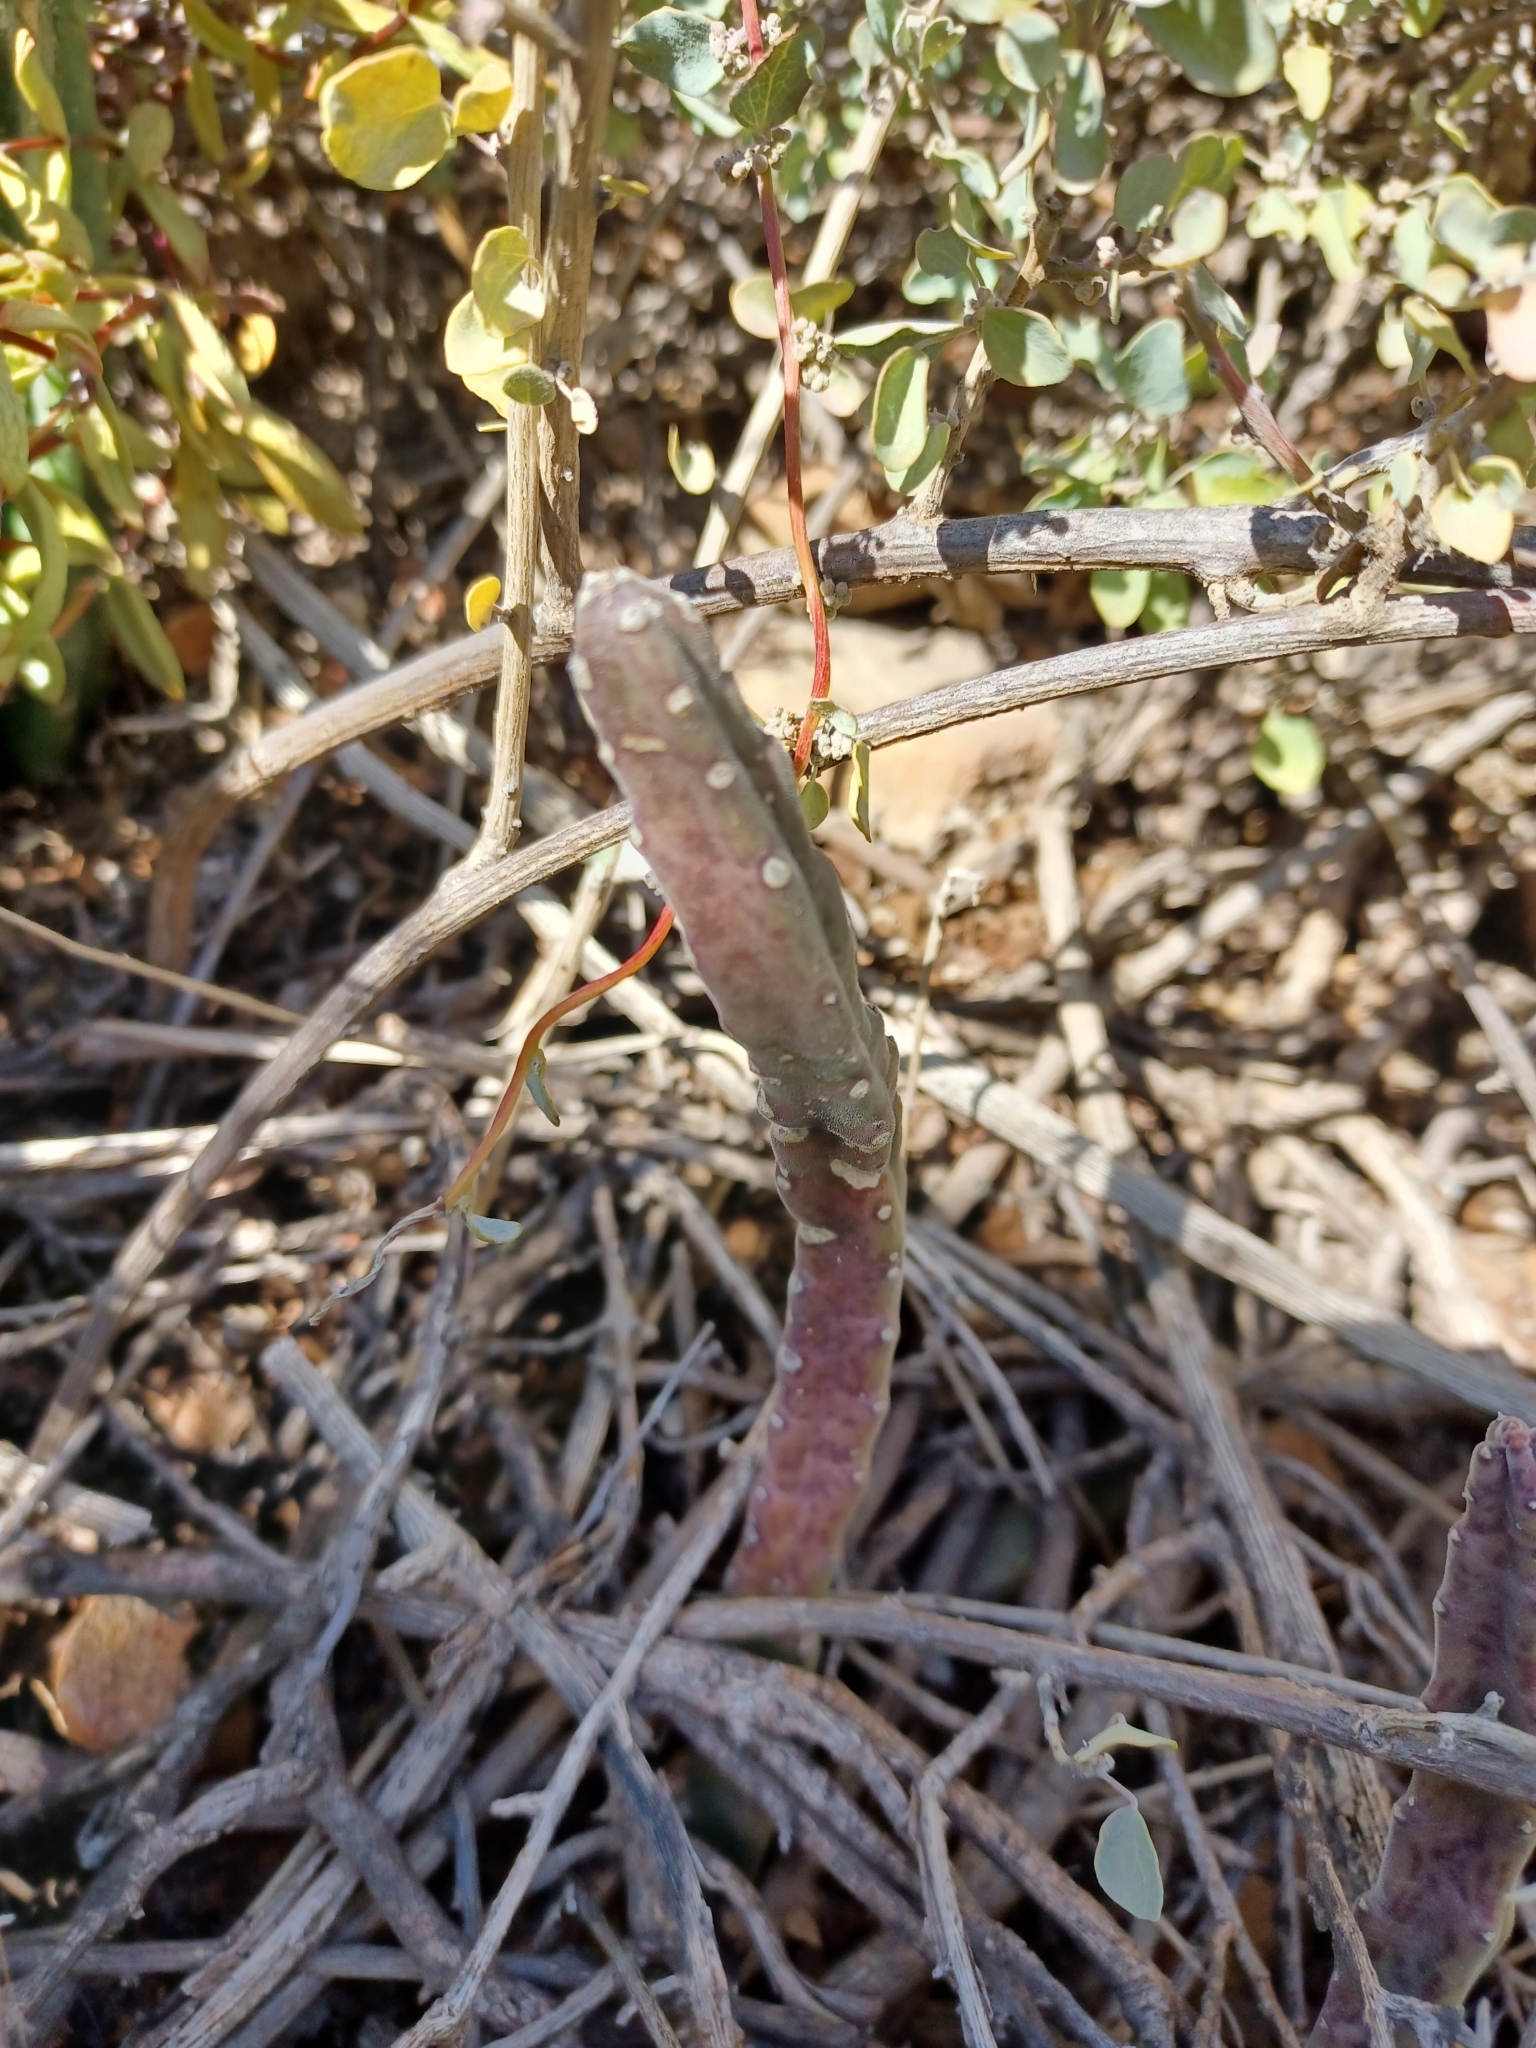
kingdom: Plantae
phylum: Tracheophyta
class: Magnoliopsida
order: Gentianales
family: Apocynaceae
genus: Ceropegia
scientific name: Ceropegia pulvinata
